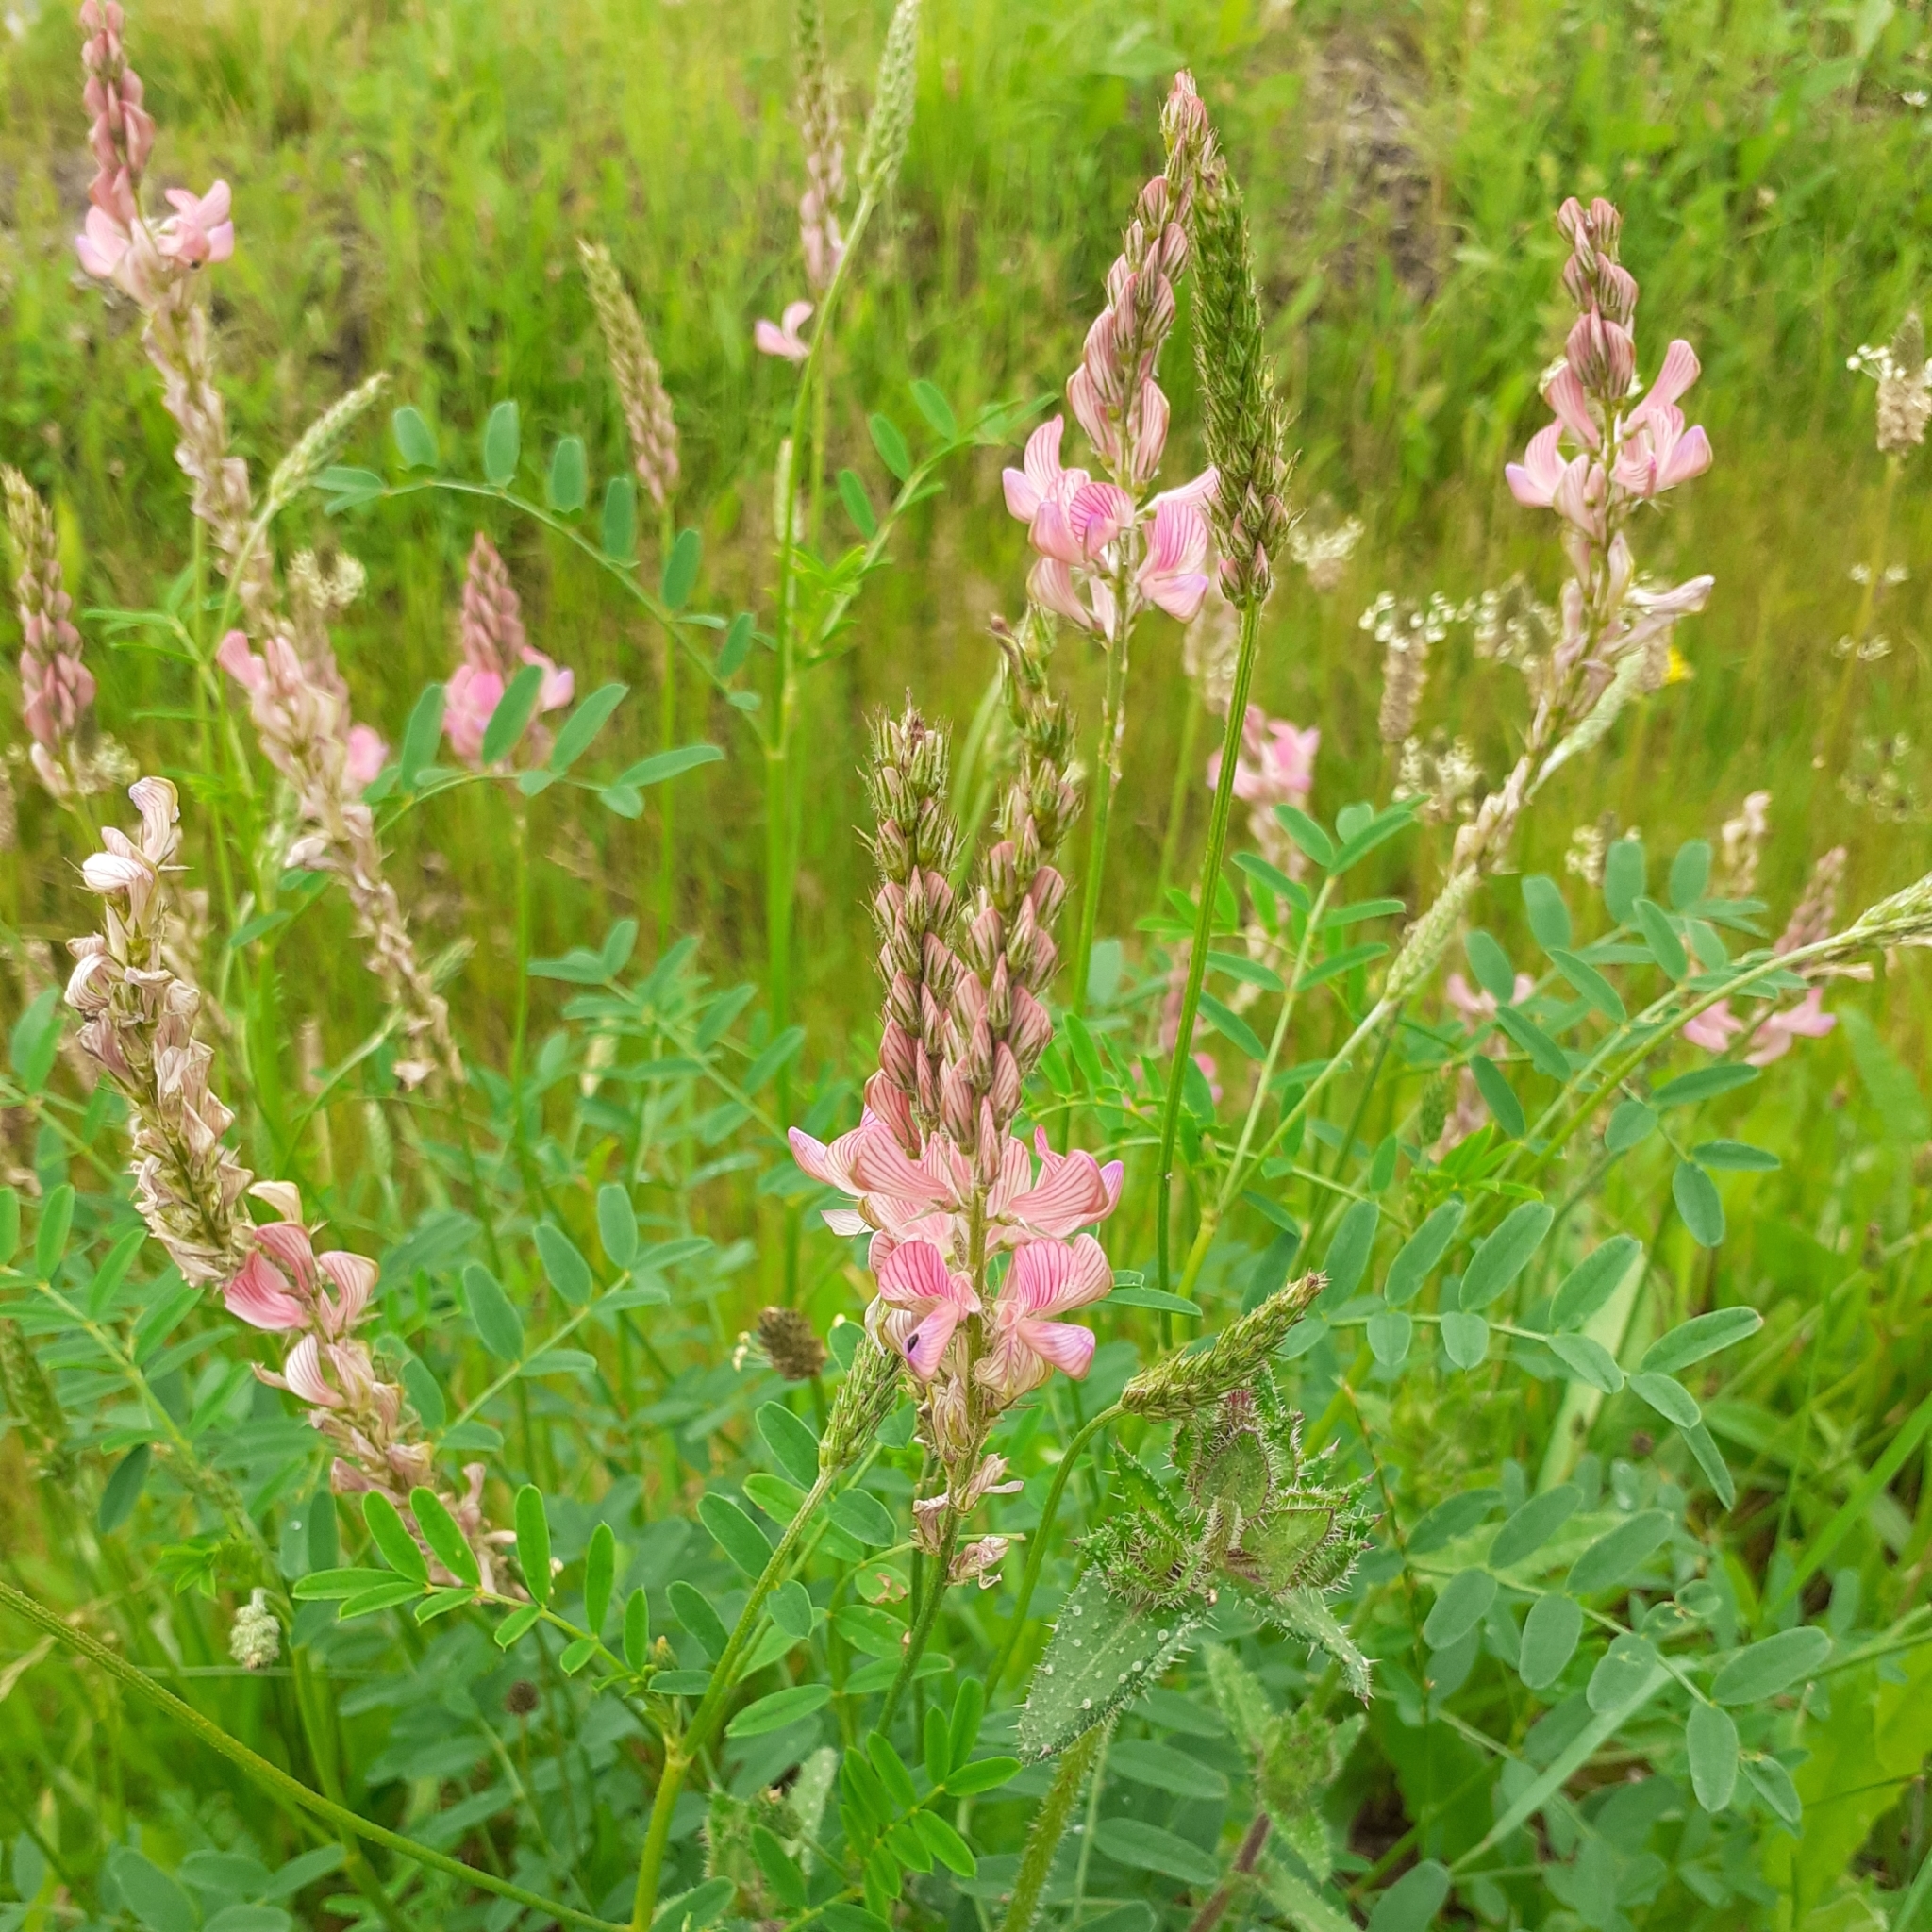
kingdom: Plantae
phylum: Tracheophyta
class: Magnoliopsida
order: Fabales
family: Fabaceae
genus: Onobrychis
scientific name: Onobrychis viciifolia
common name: Sainfoin
